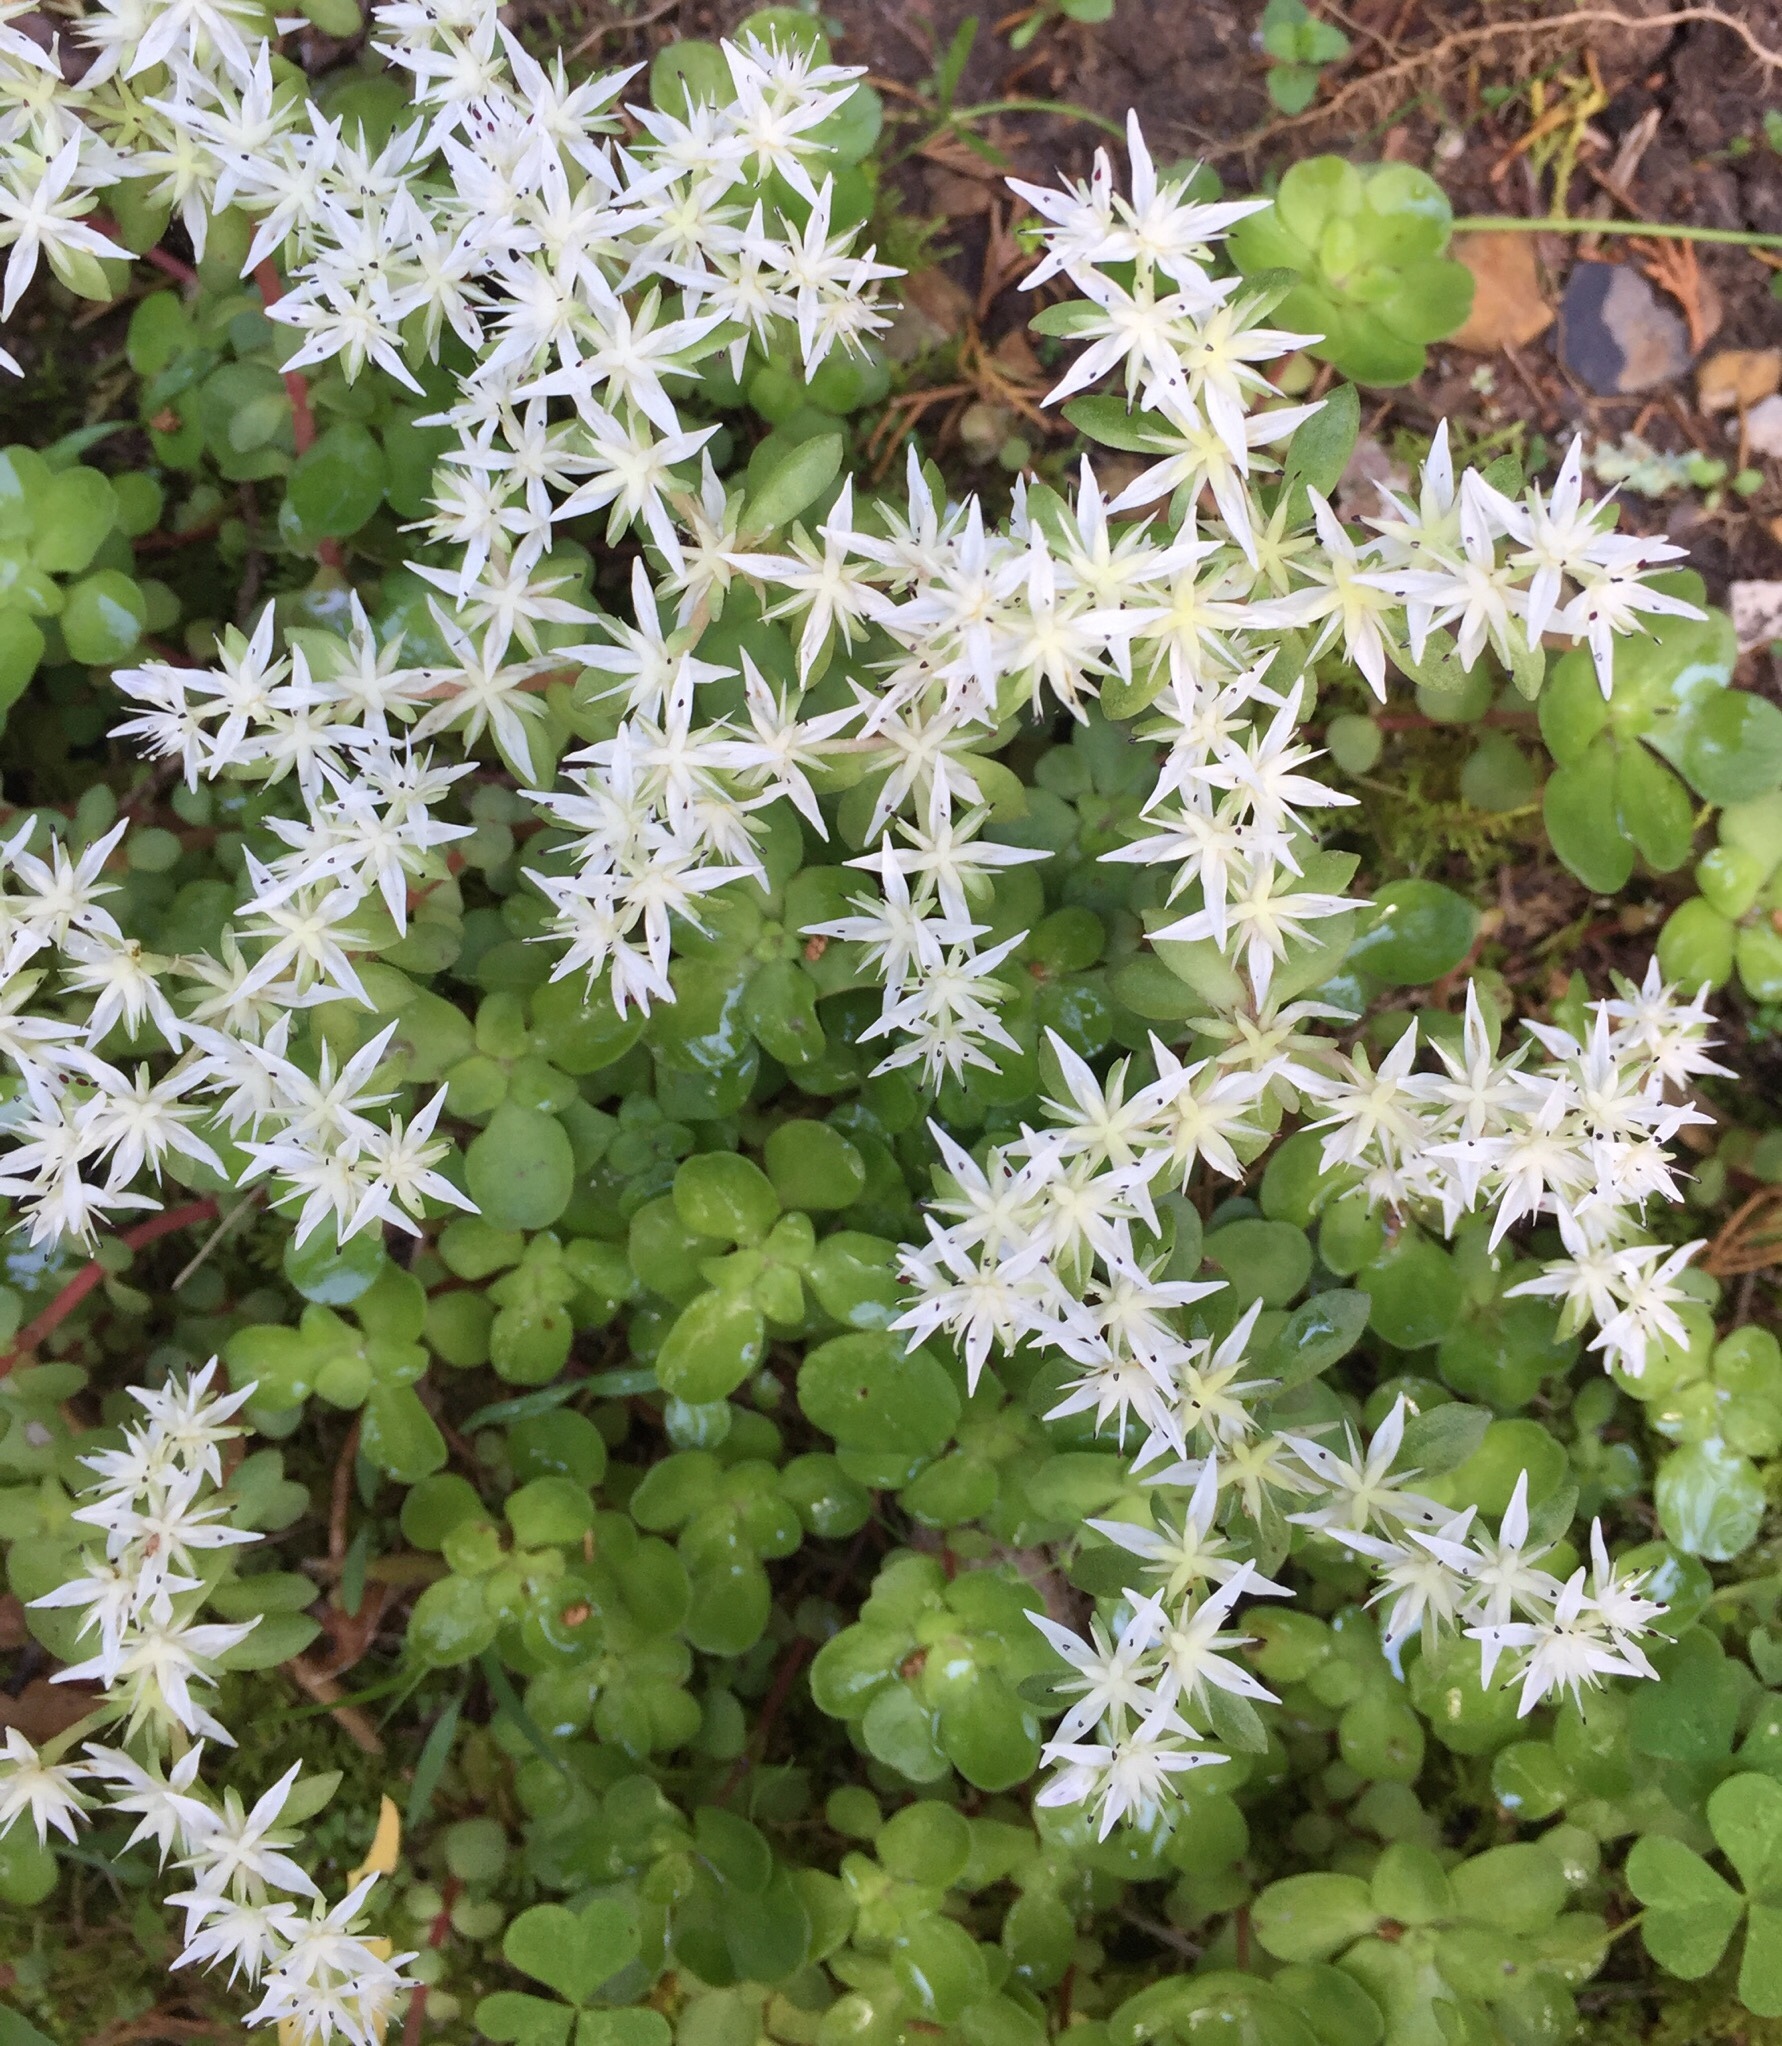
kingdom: Plantae
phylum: Tracheophyta
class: Magnoliopsida
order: Saxifragales
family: Crassulaceae
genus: Sedum
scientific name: Sedum ternatum
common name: Wild stonecrop
